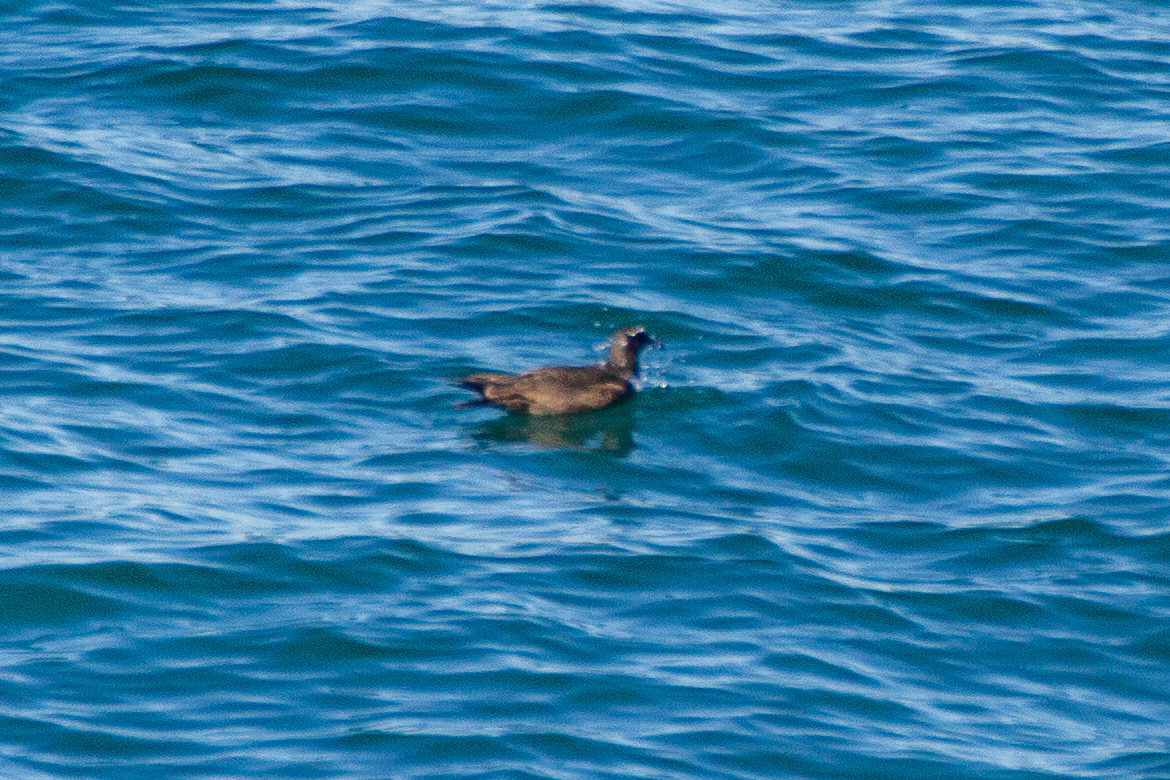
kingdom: Animalia
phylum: Chordata
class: Aves
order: Charadriiformes
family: Laridae
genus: Larus
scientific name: Larus heermanni
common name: Heermann's gull
